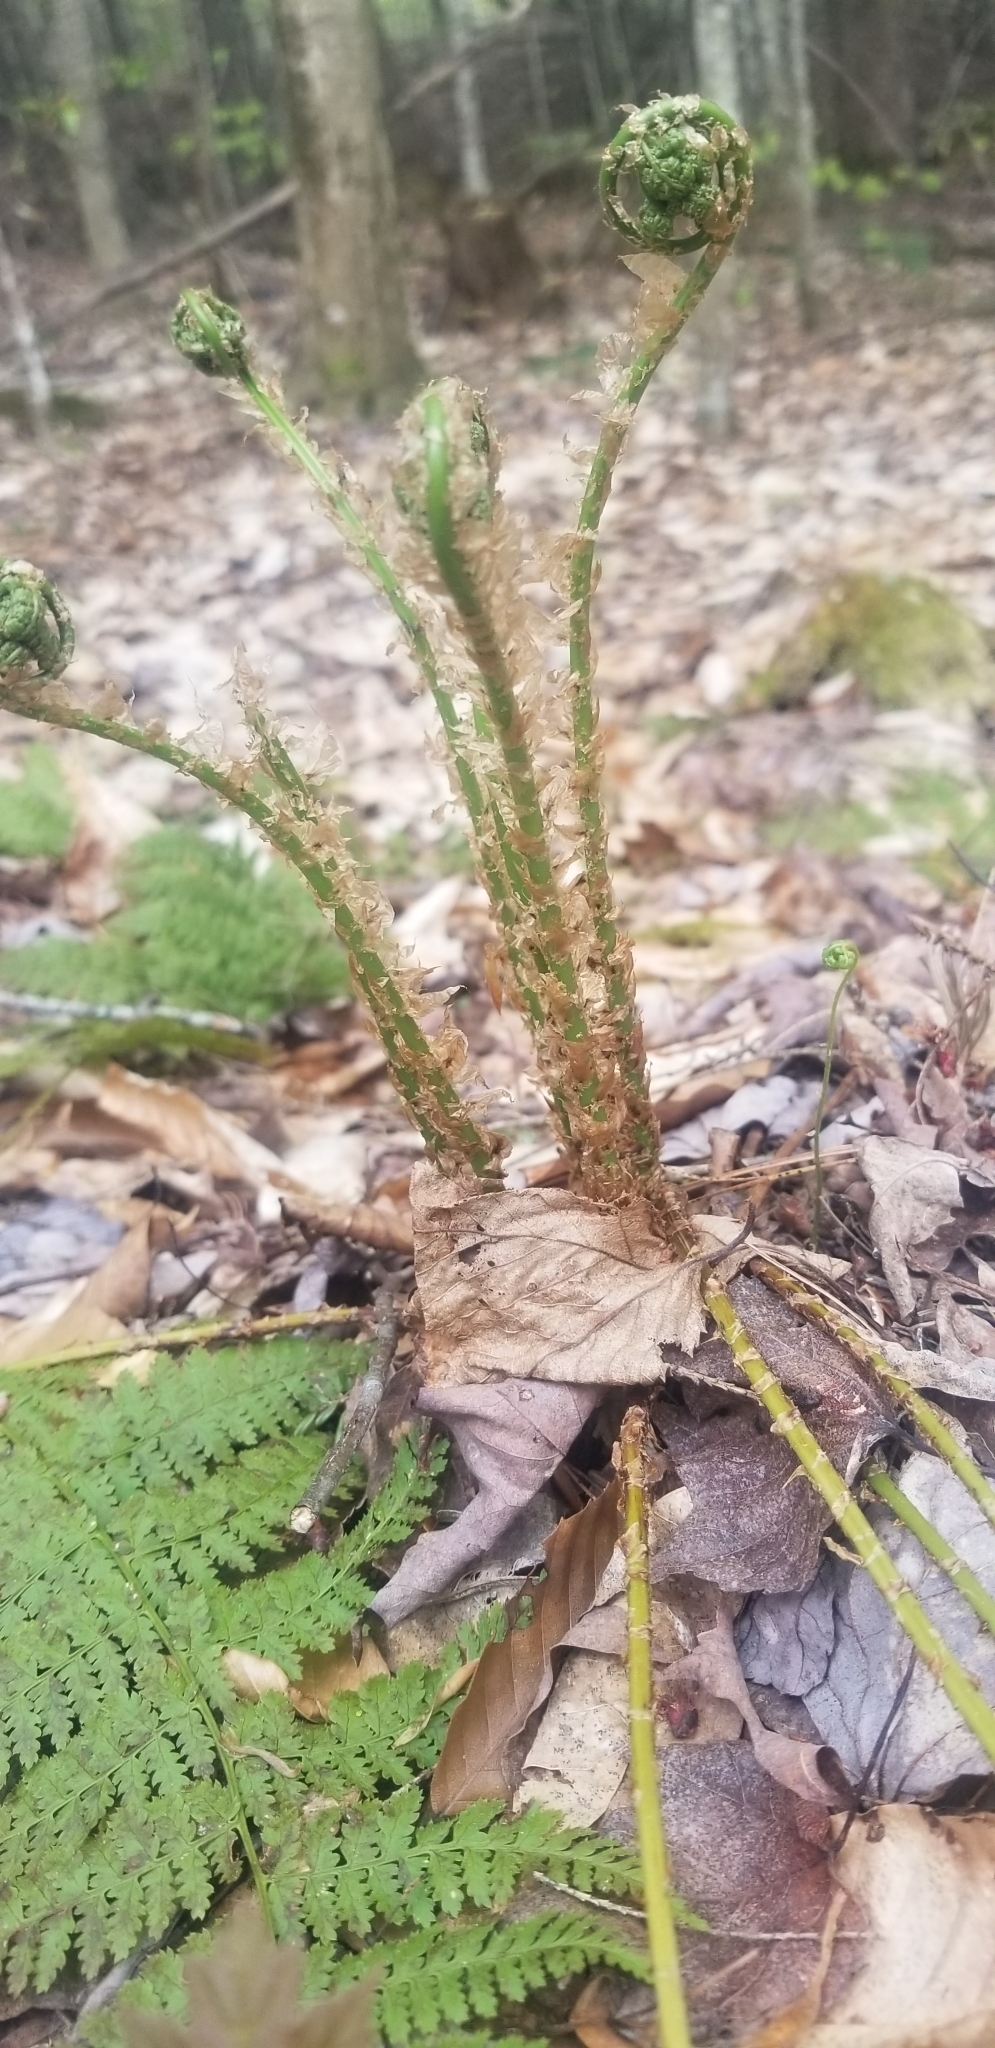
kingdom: Plantae
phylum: Tracheophyta
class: Polypodiopsida
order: Polypodiales
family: Dryopteridaceae
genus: Dryopteris
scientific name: Dryopteris intermedia
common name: Evergreen wood fern
